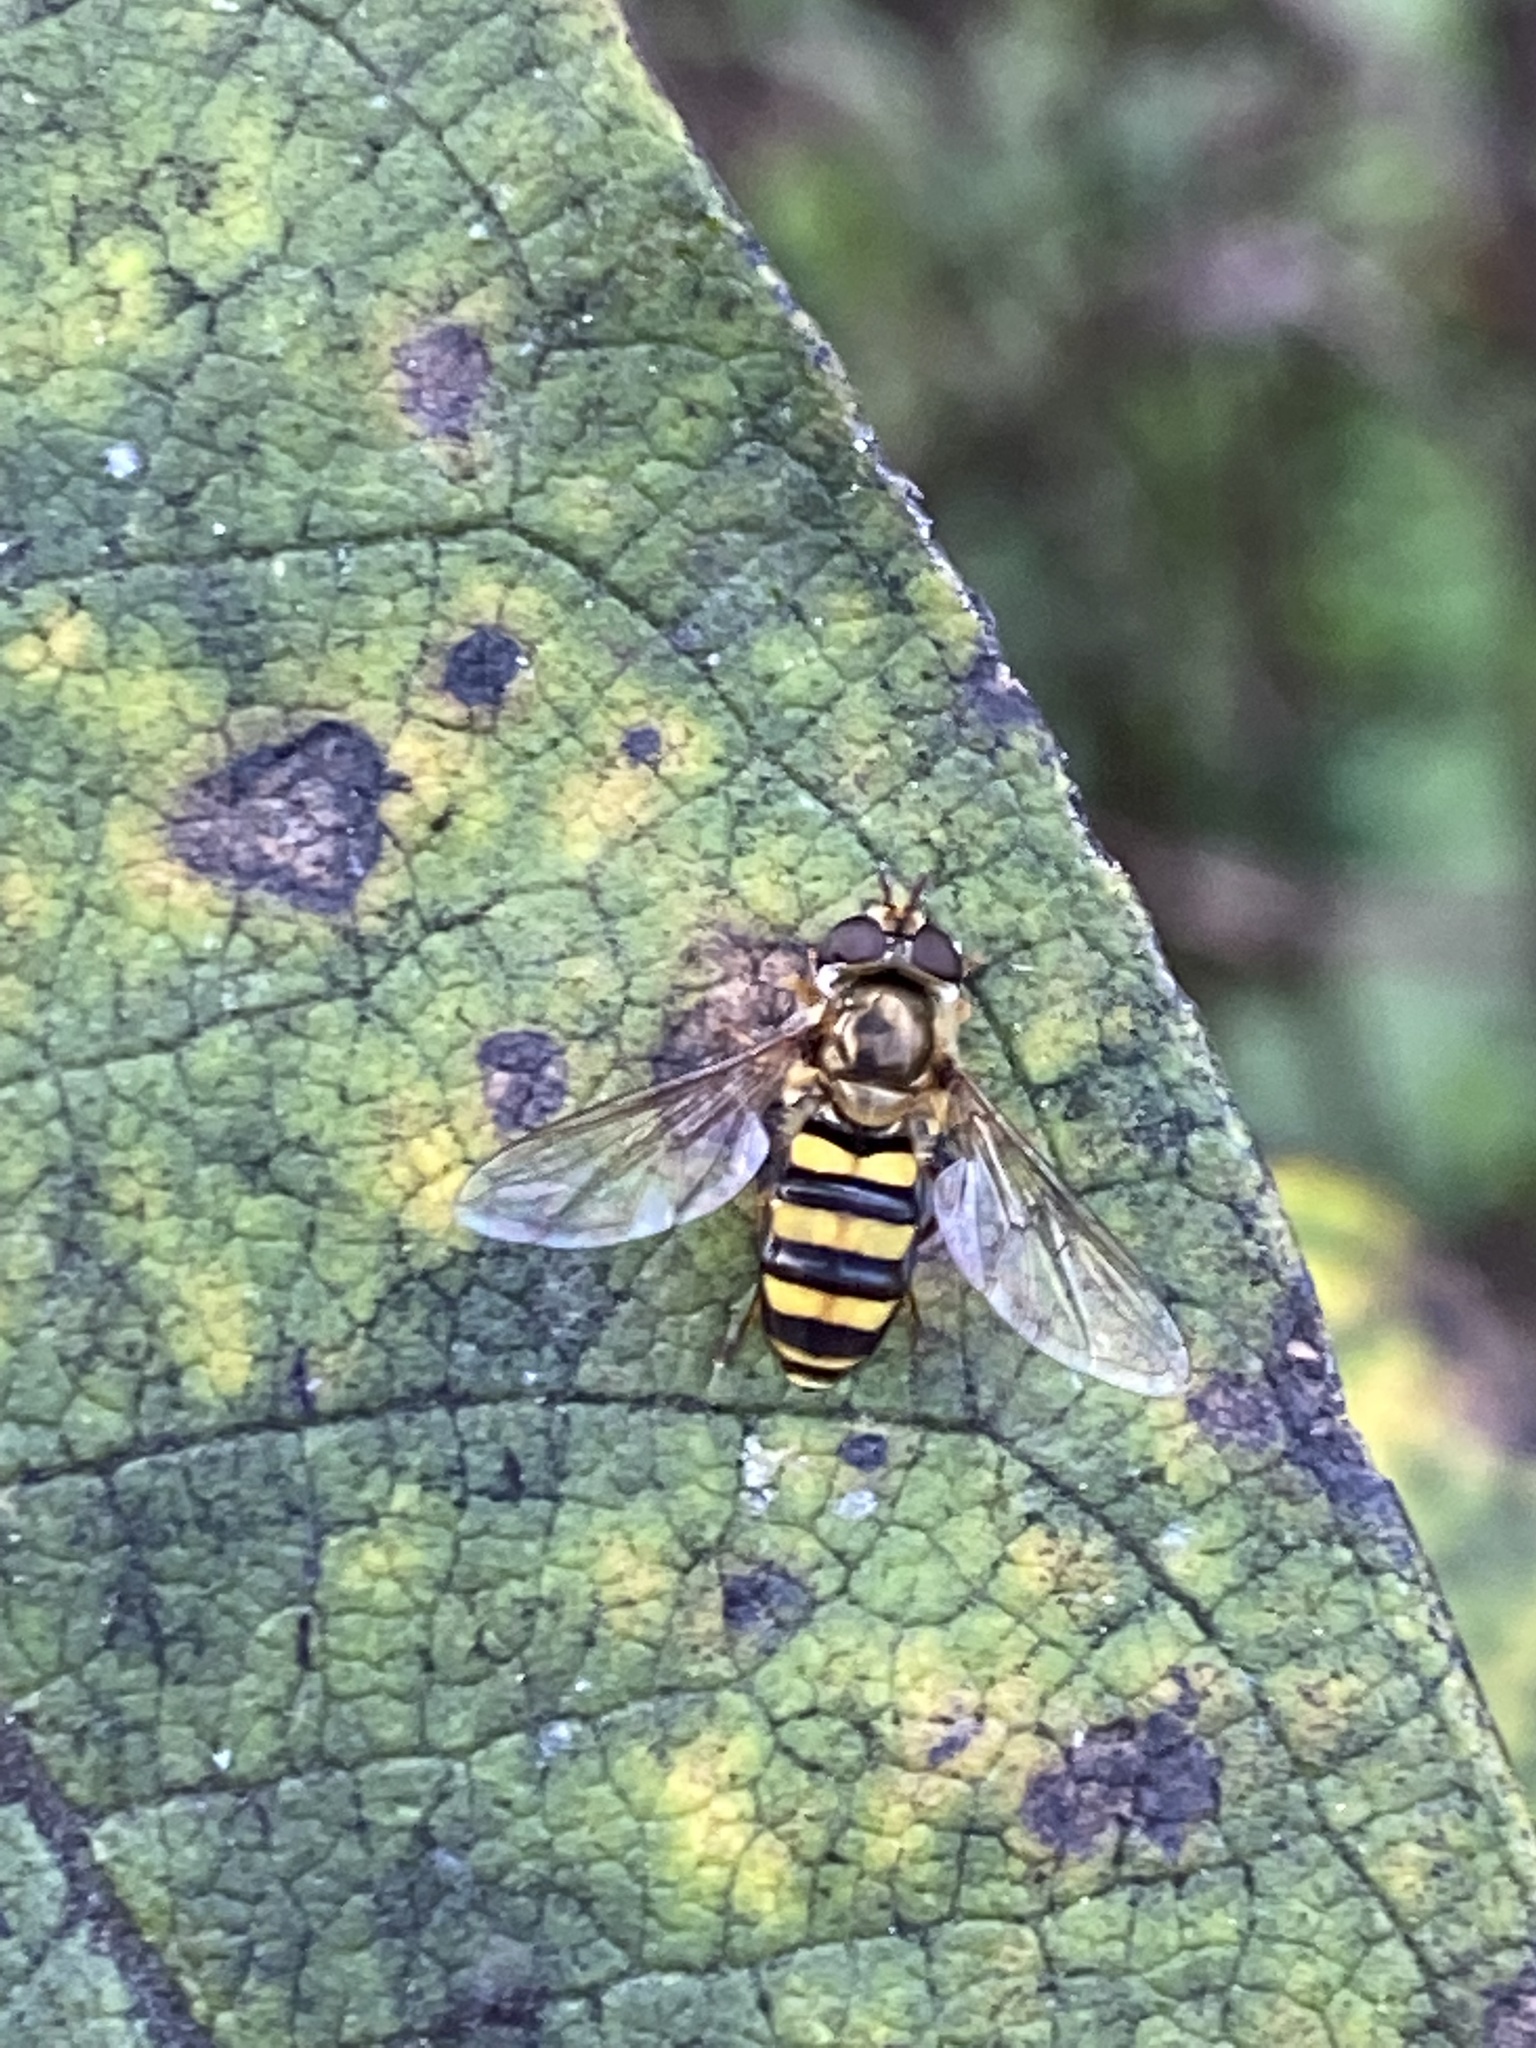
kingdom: Animalia
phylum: Arthropoda
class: Insecta
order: Diptera
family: Syrphidae
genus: Eupeodes
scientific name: Eupeodes
